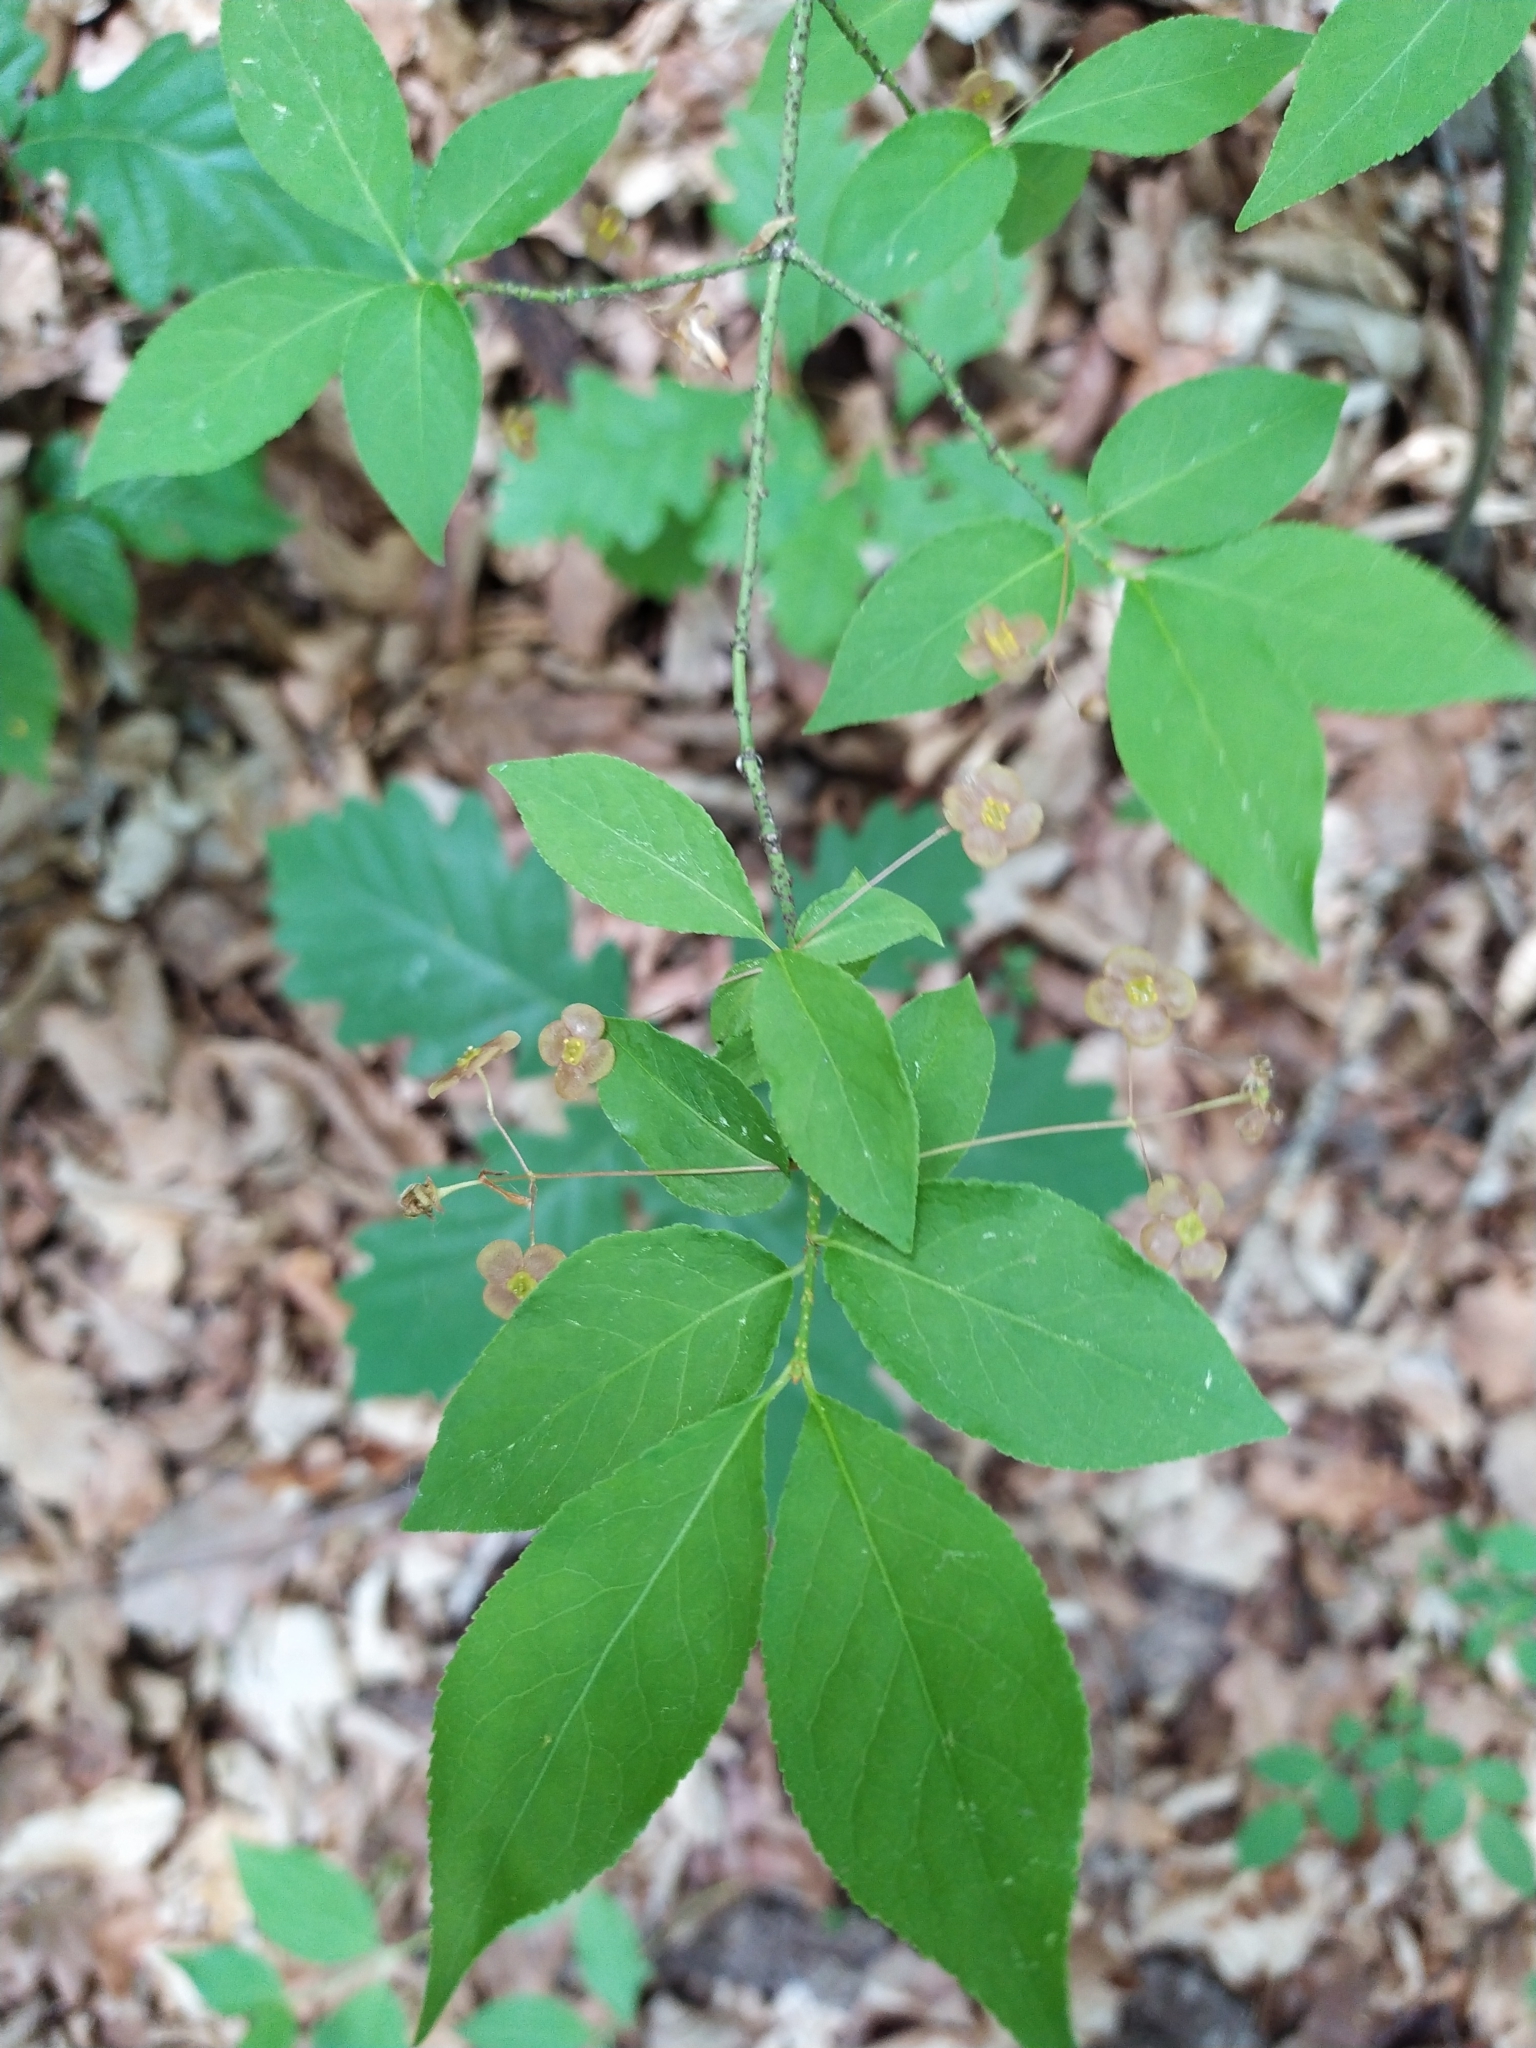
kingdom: Plantae
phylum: Tracheophyta
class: Magnoliopsida
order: Celastrales
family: Celastraceae
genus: Euonymus
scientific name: Euonymus verrucosus
